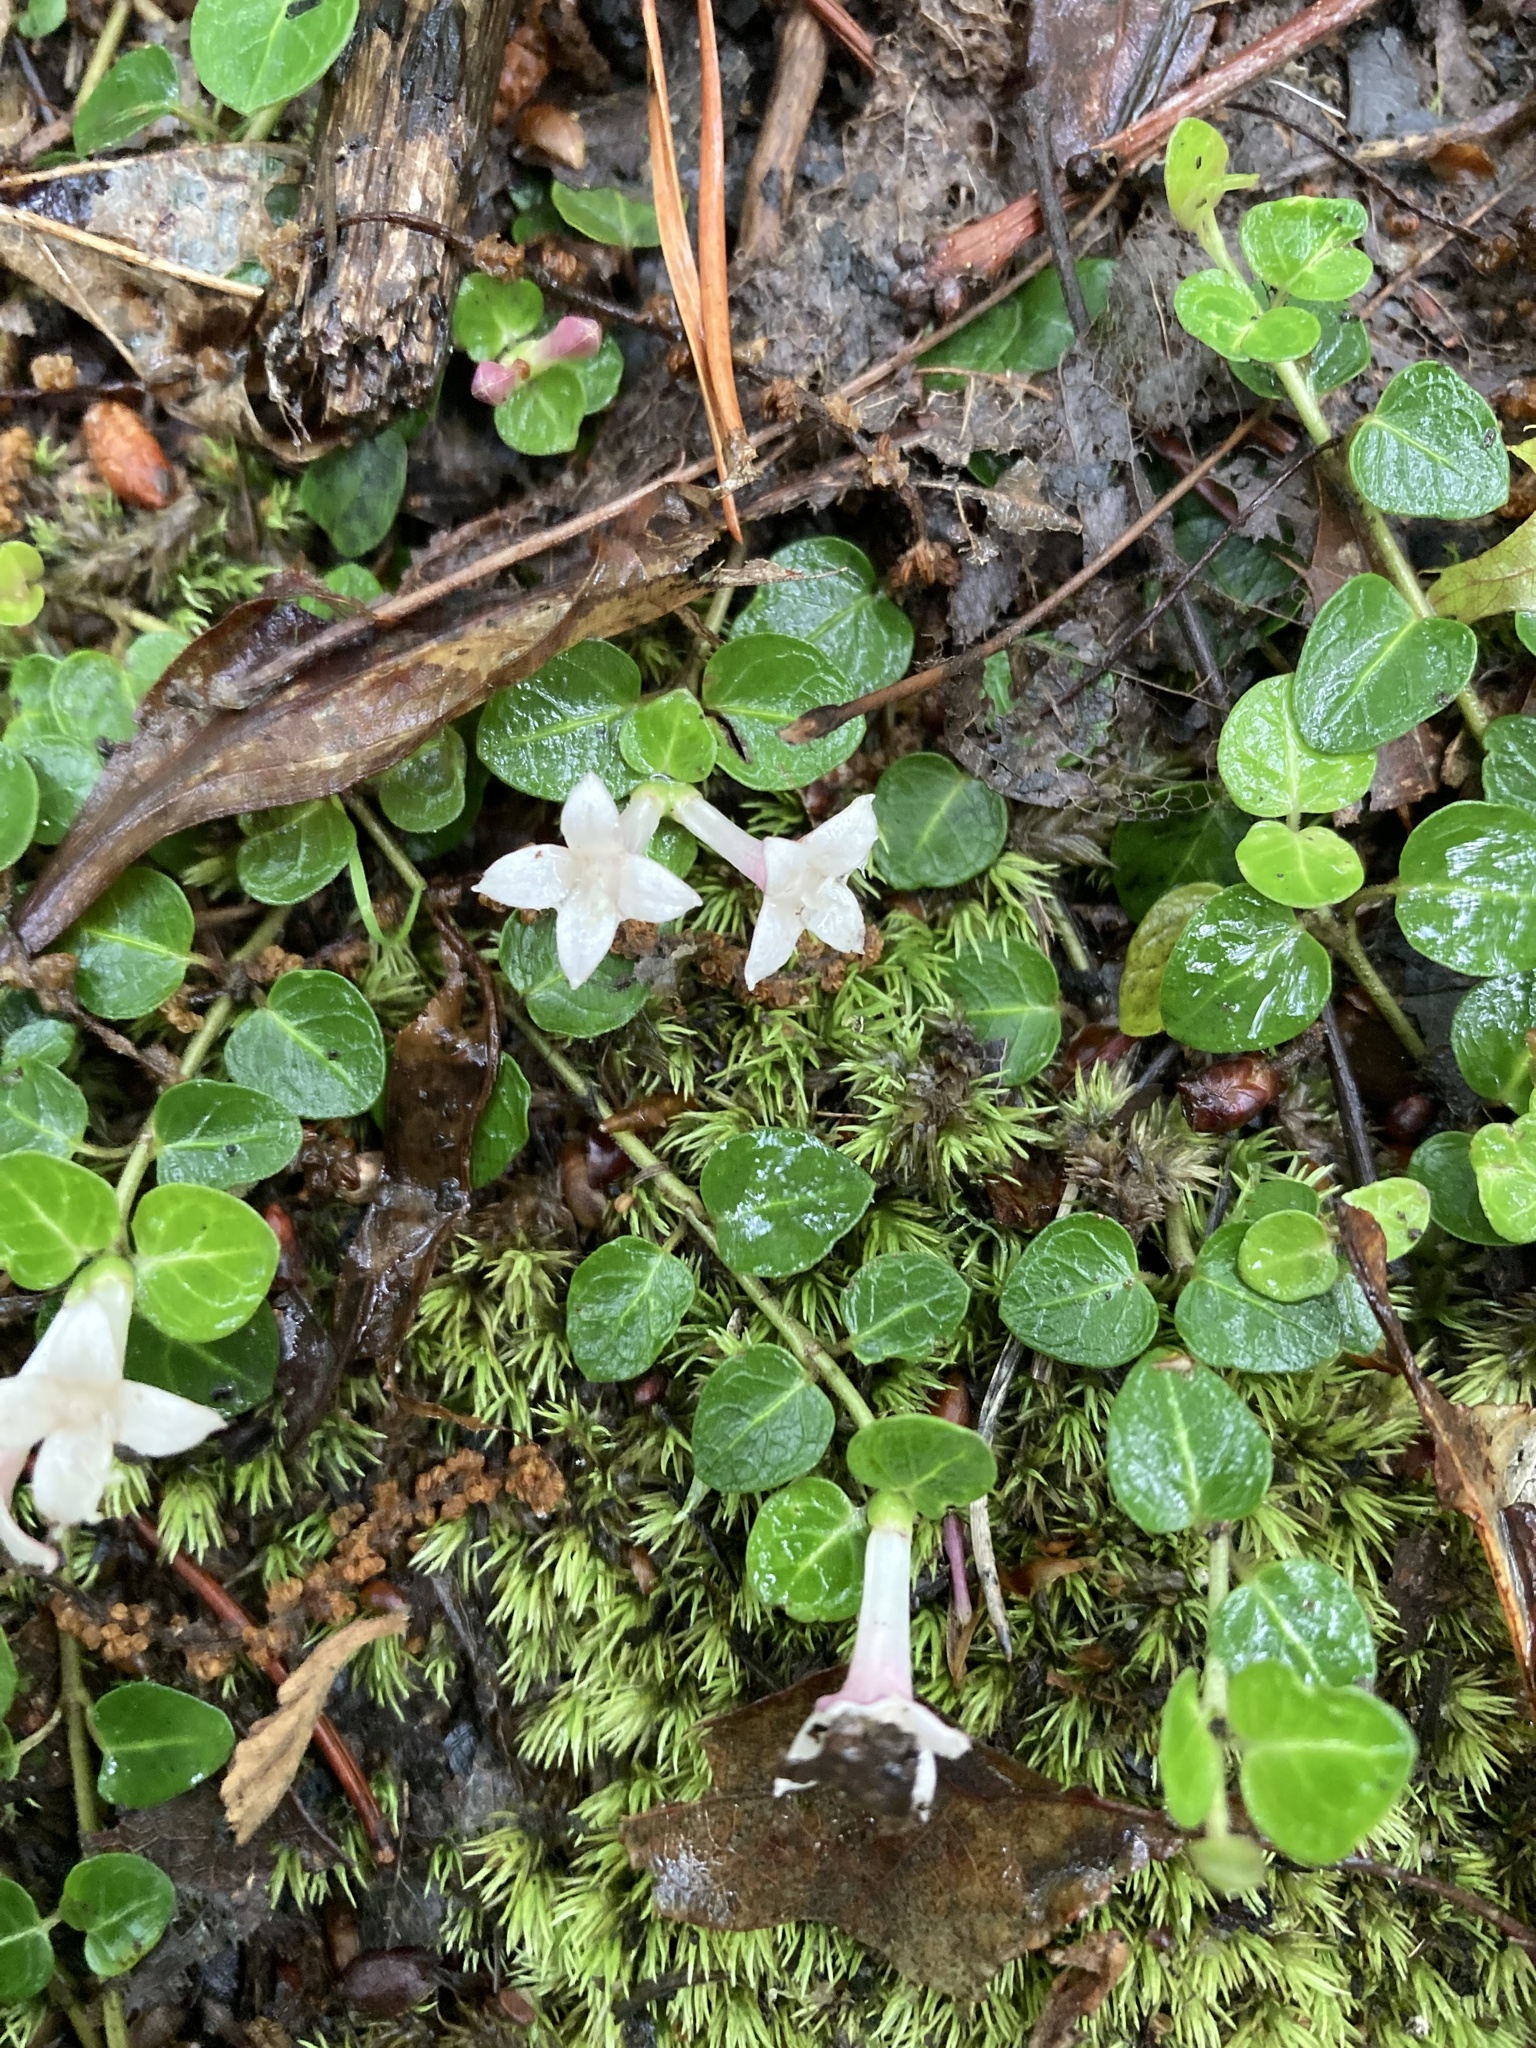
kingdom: Plantae
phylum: Tracheophyta
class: Magnoliopsida
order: Gentianales
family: Rubiaceae
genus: Mitchella
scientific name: Mitchella repens
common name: Partridge-berry
